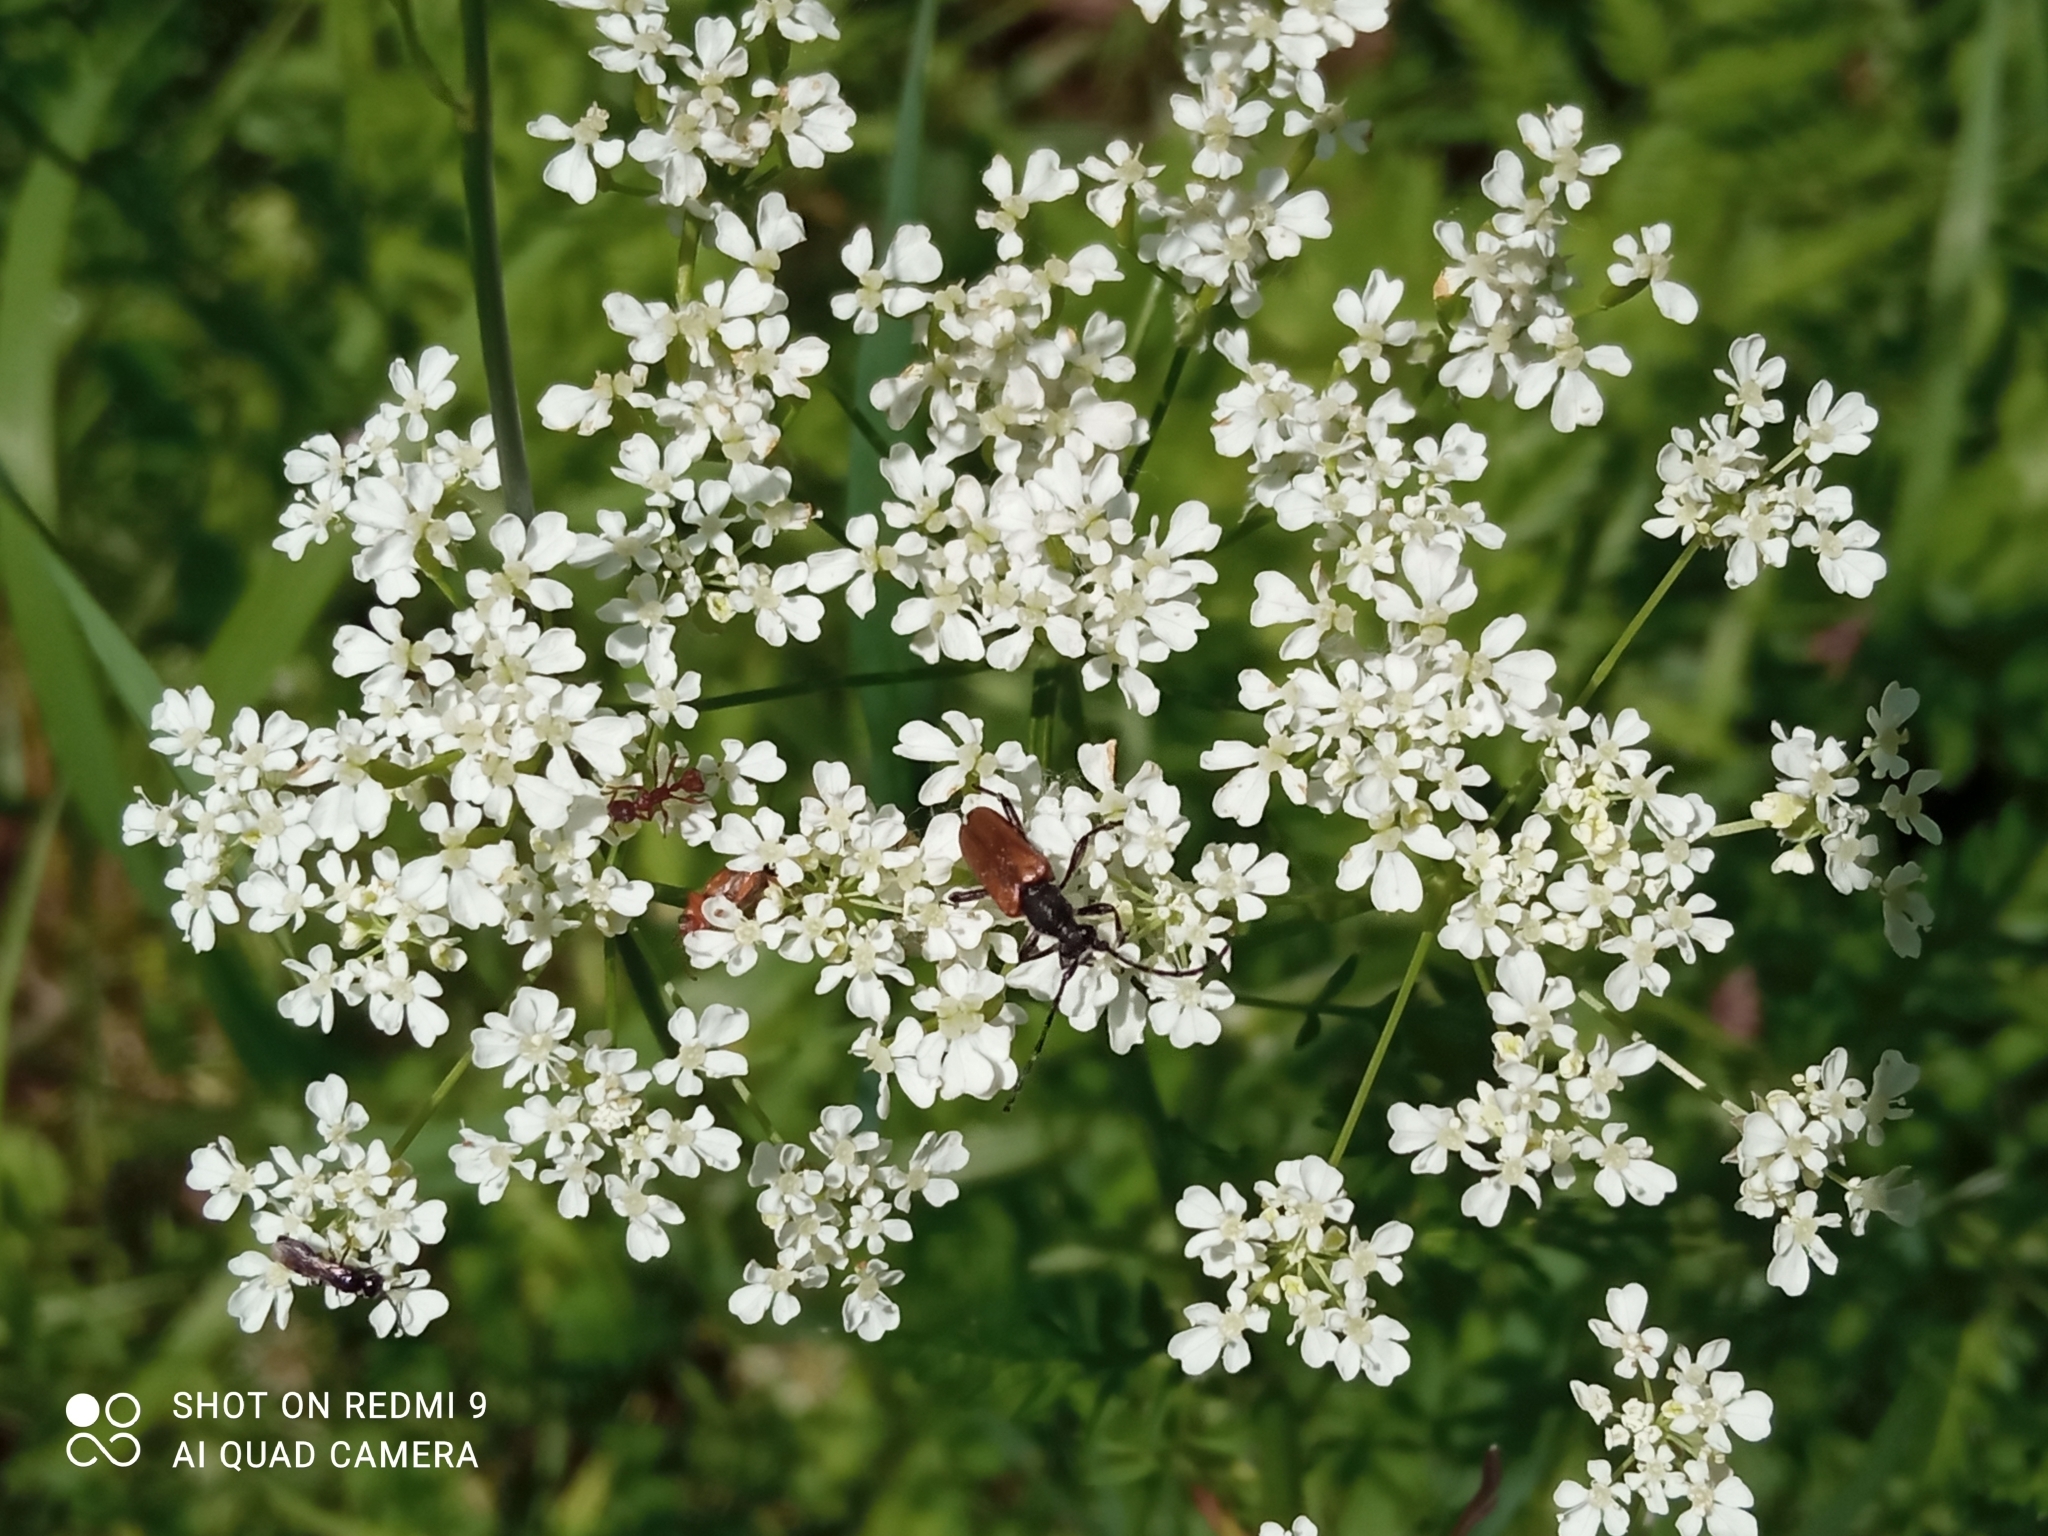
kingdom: Animalia
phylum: Arthropoda
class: Insecta
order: Coleoptera
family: Cerambycidae
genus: Paracorymbia
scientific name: Paracorymbia maculicornis
